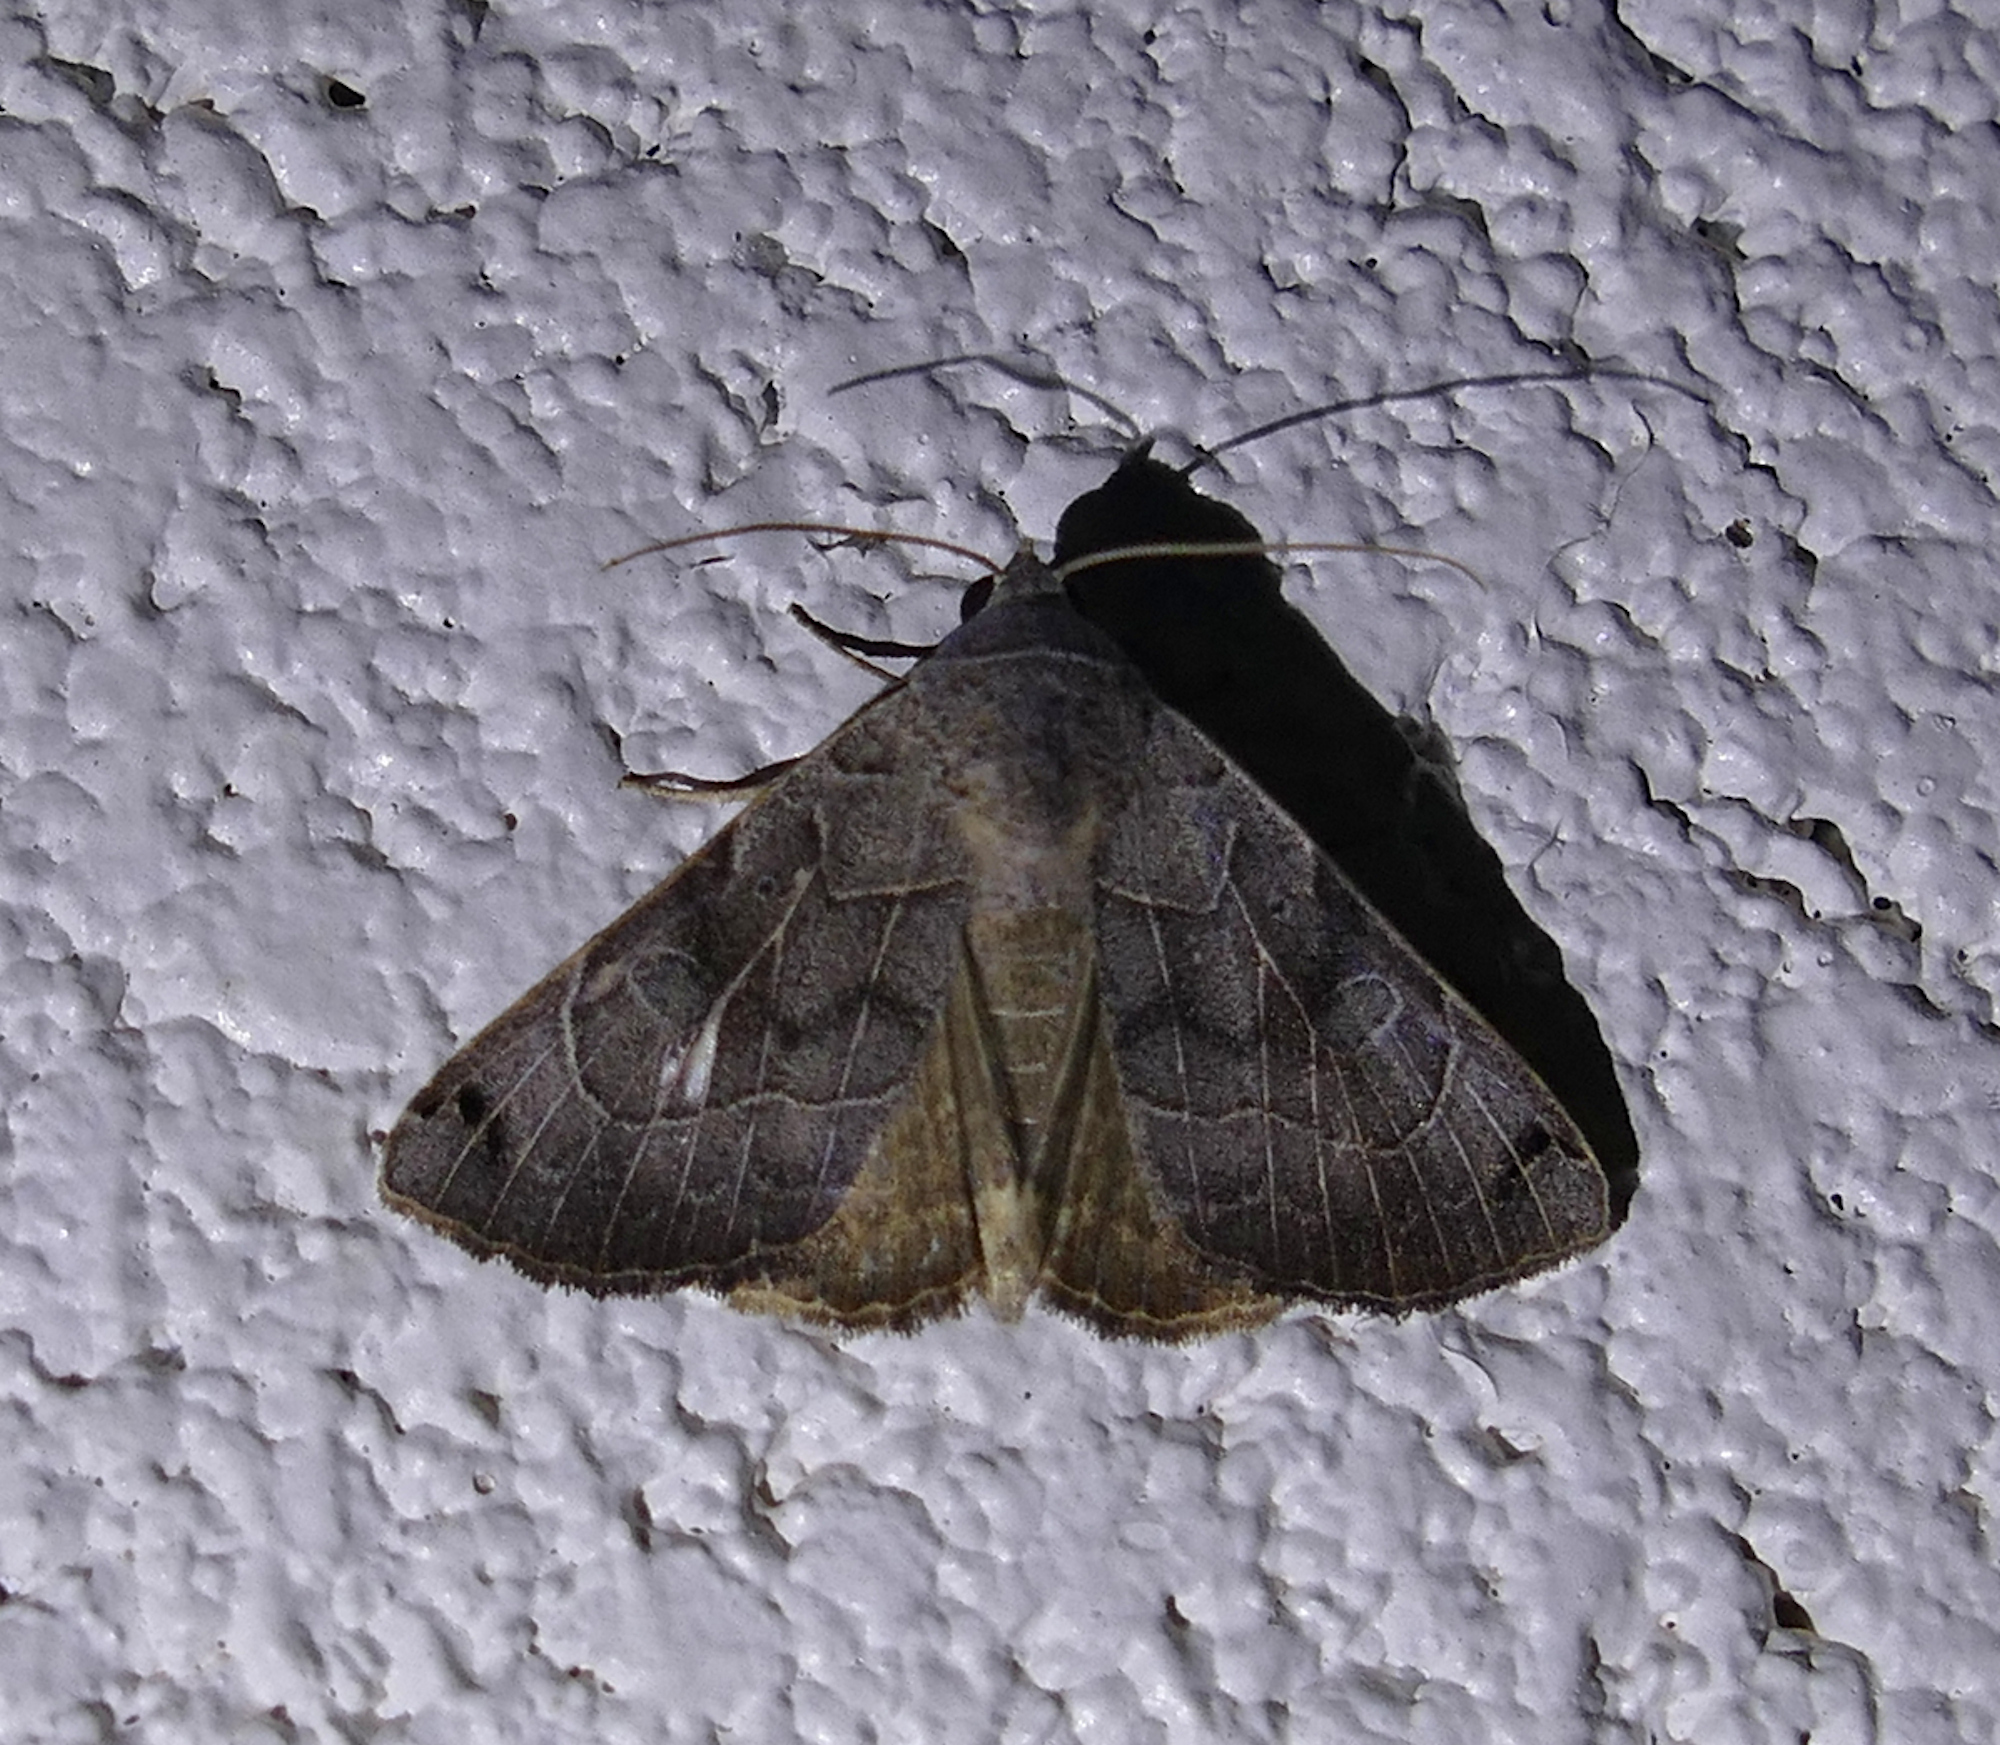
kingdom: Animalia
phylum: Arthropoda
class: Insecta
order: Lepidoptera
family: Erebidae
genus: Isogona
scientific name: Isogona scindens
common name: Owlet moth
